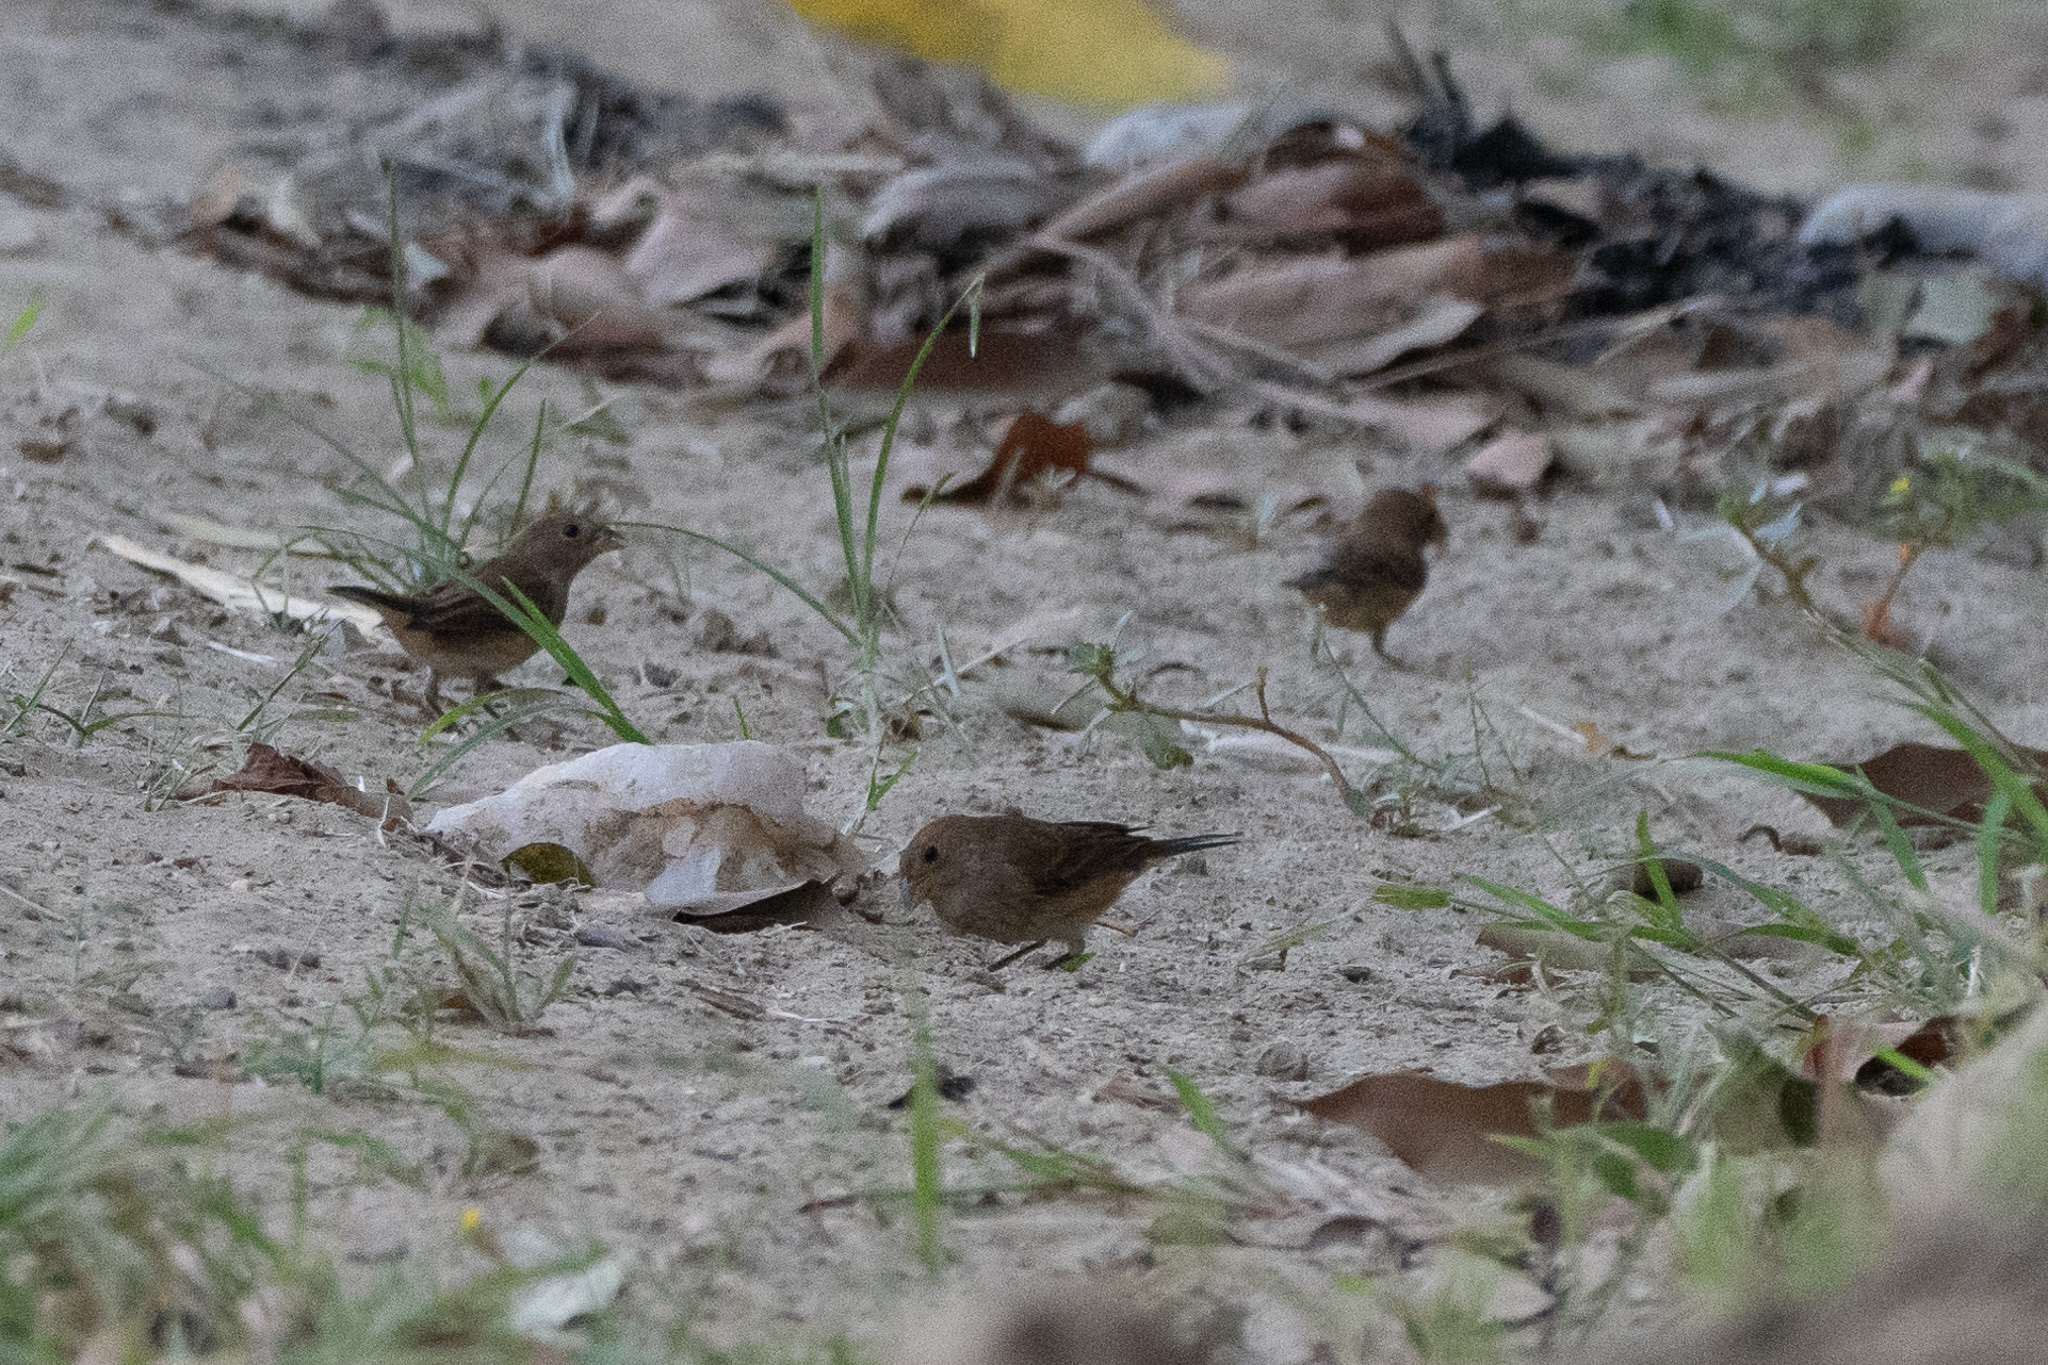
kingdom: Animalia
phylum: Chordata
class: Aves
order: Passeriformes
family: Cardinalidae
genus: Passerina
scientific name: Passerina cyanea
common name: Indigo bunting
